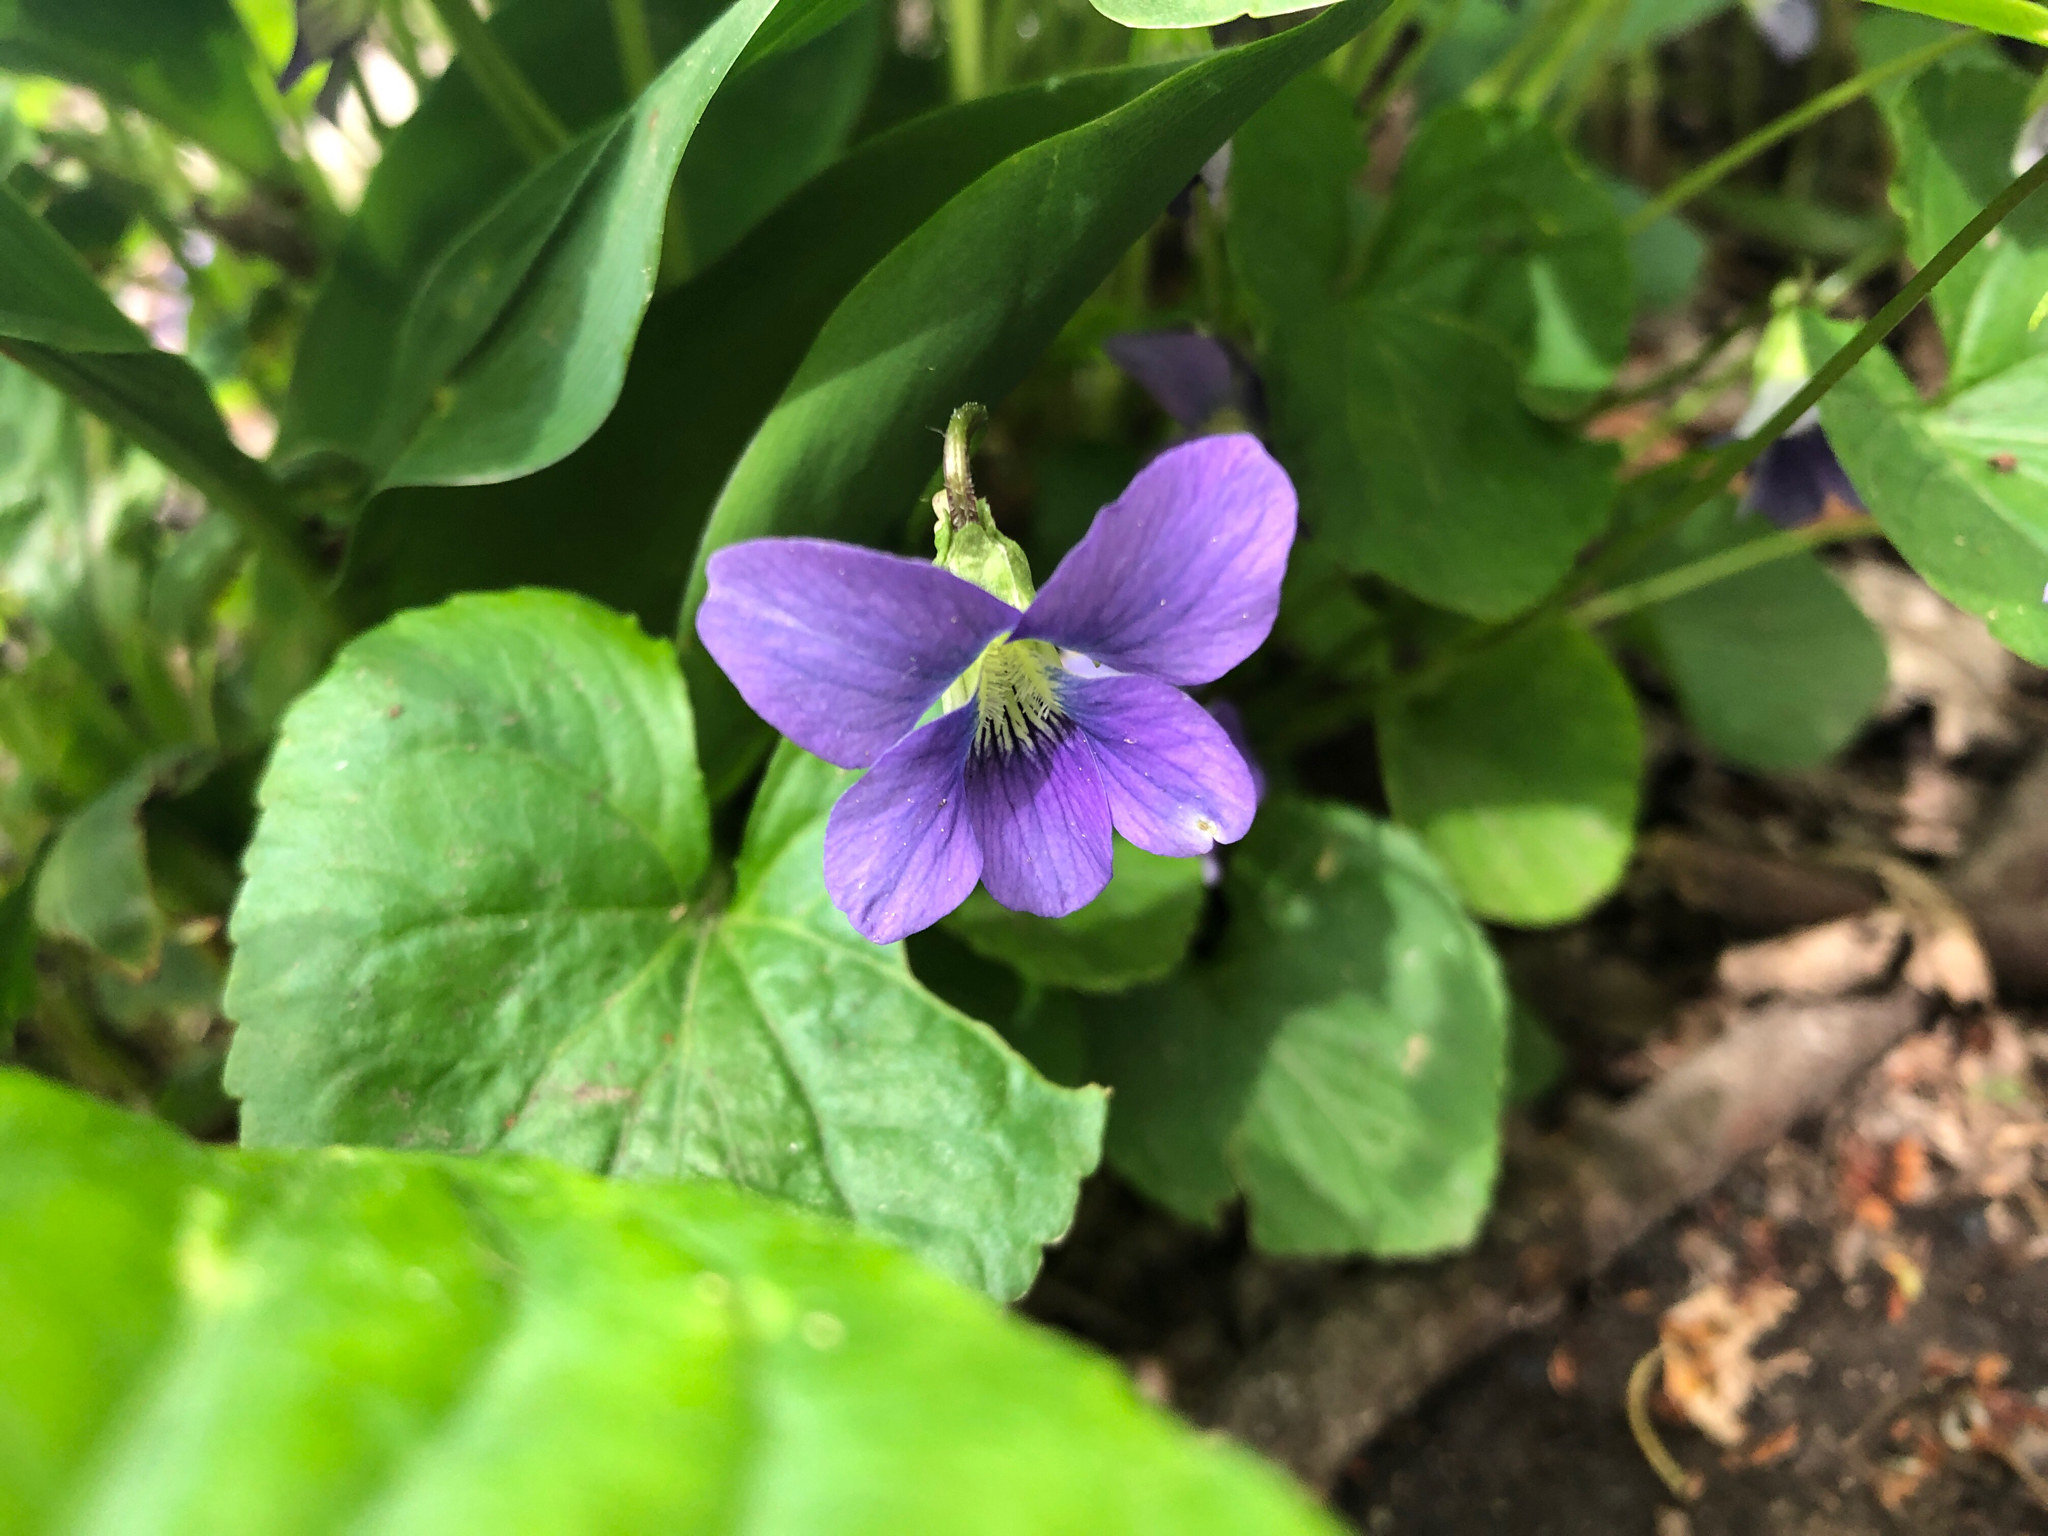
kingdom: Plantae
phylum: Tracheophyta
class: Magnoliopsida
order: Malpighiales
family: Violaceae
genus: Viola
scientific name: Viola sororia
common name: Dooryard violet
